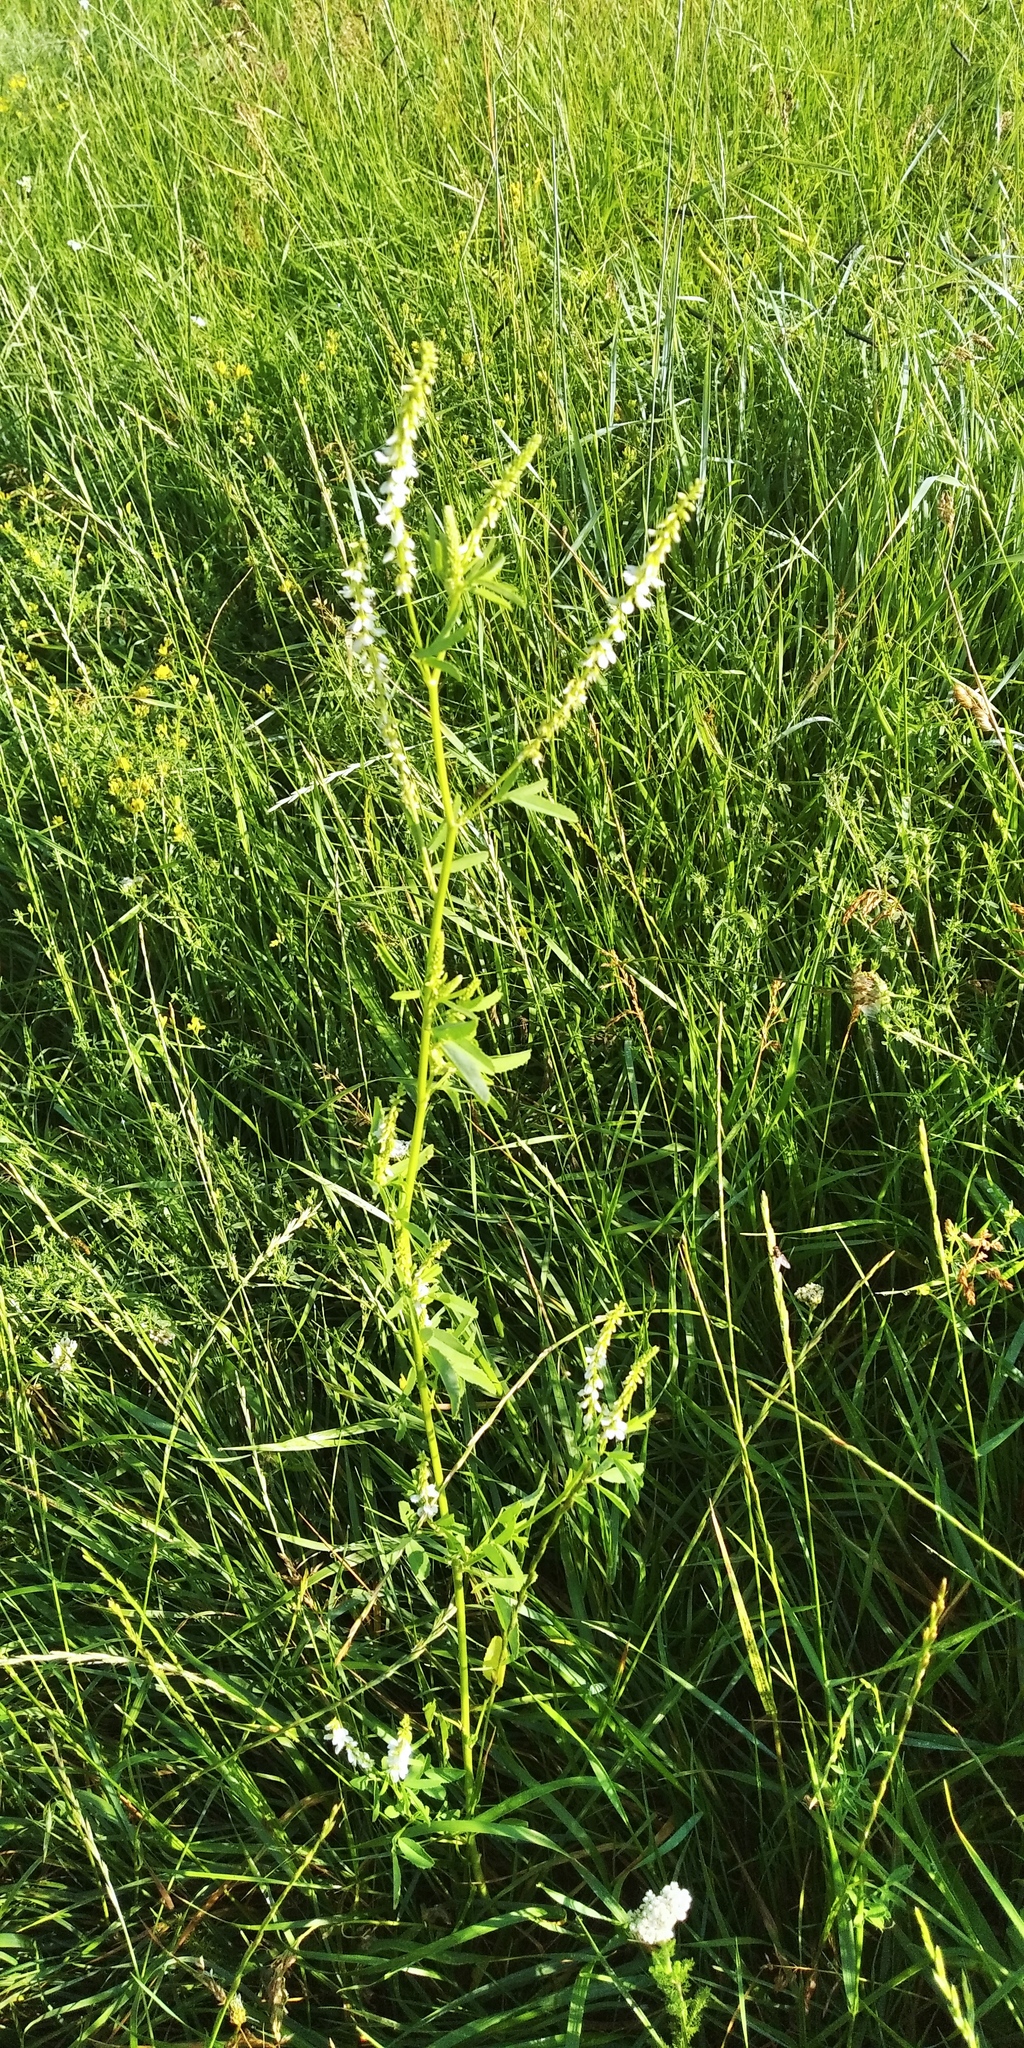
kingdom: Plantae
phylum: Tracheophyta
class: Magnoliopsida
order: Fabales
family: Fabaceae
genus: Melilotus
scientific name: Melilotus albus
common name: White melilot
